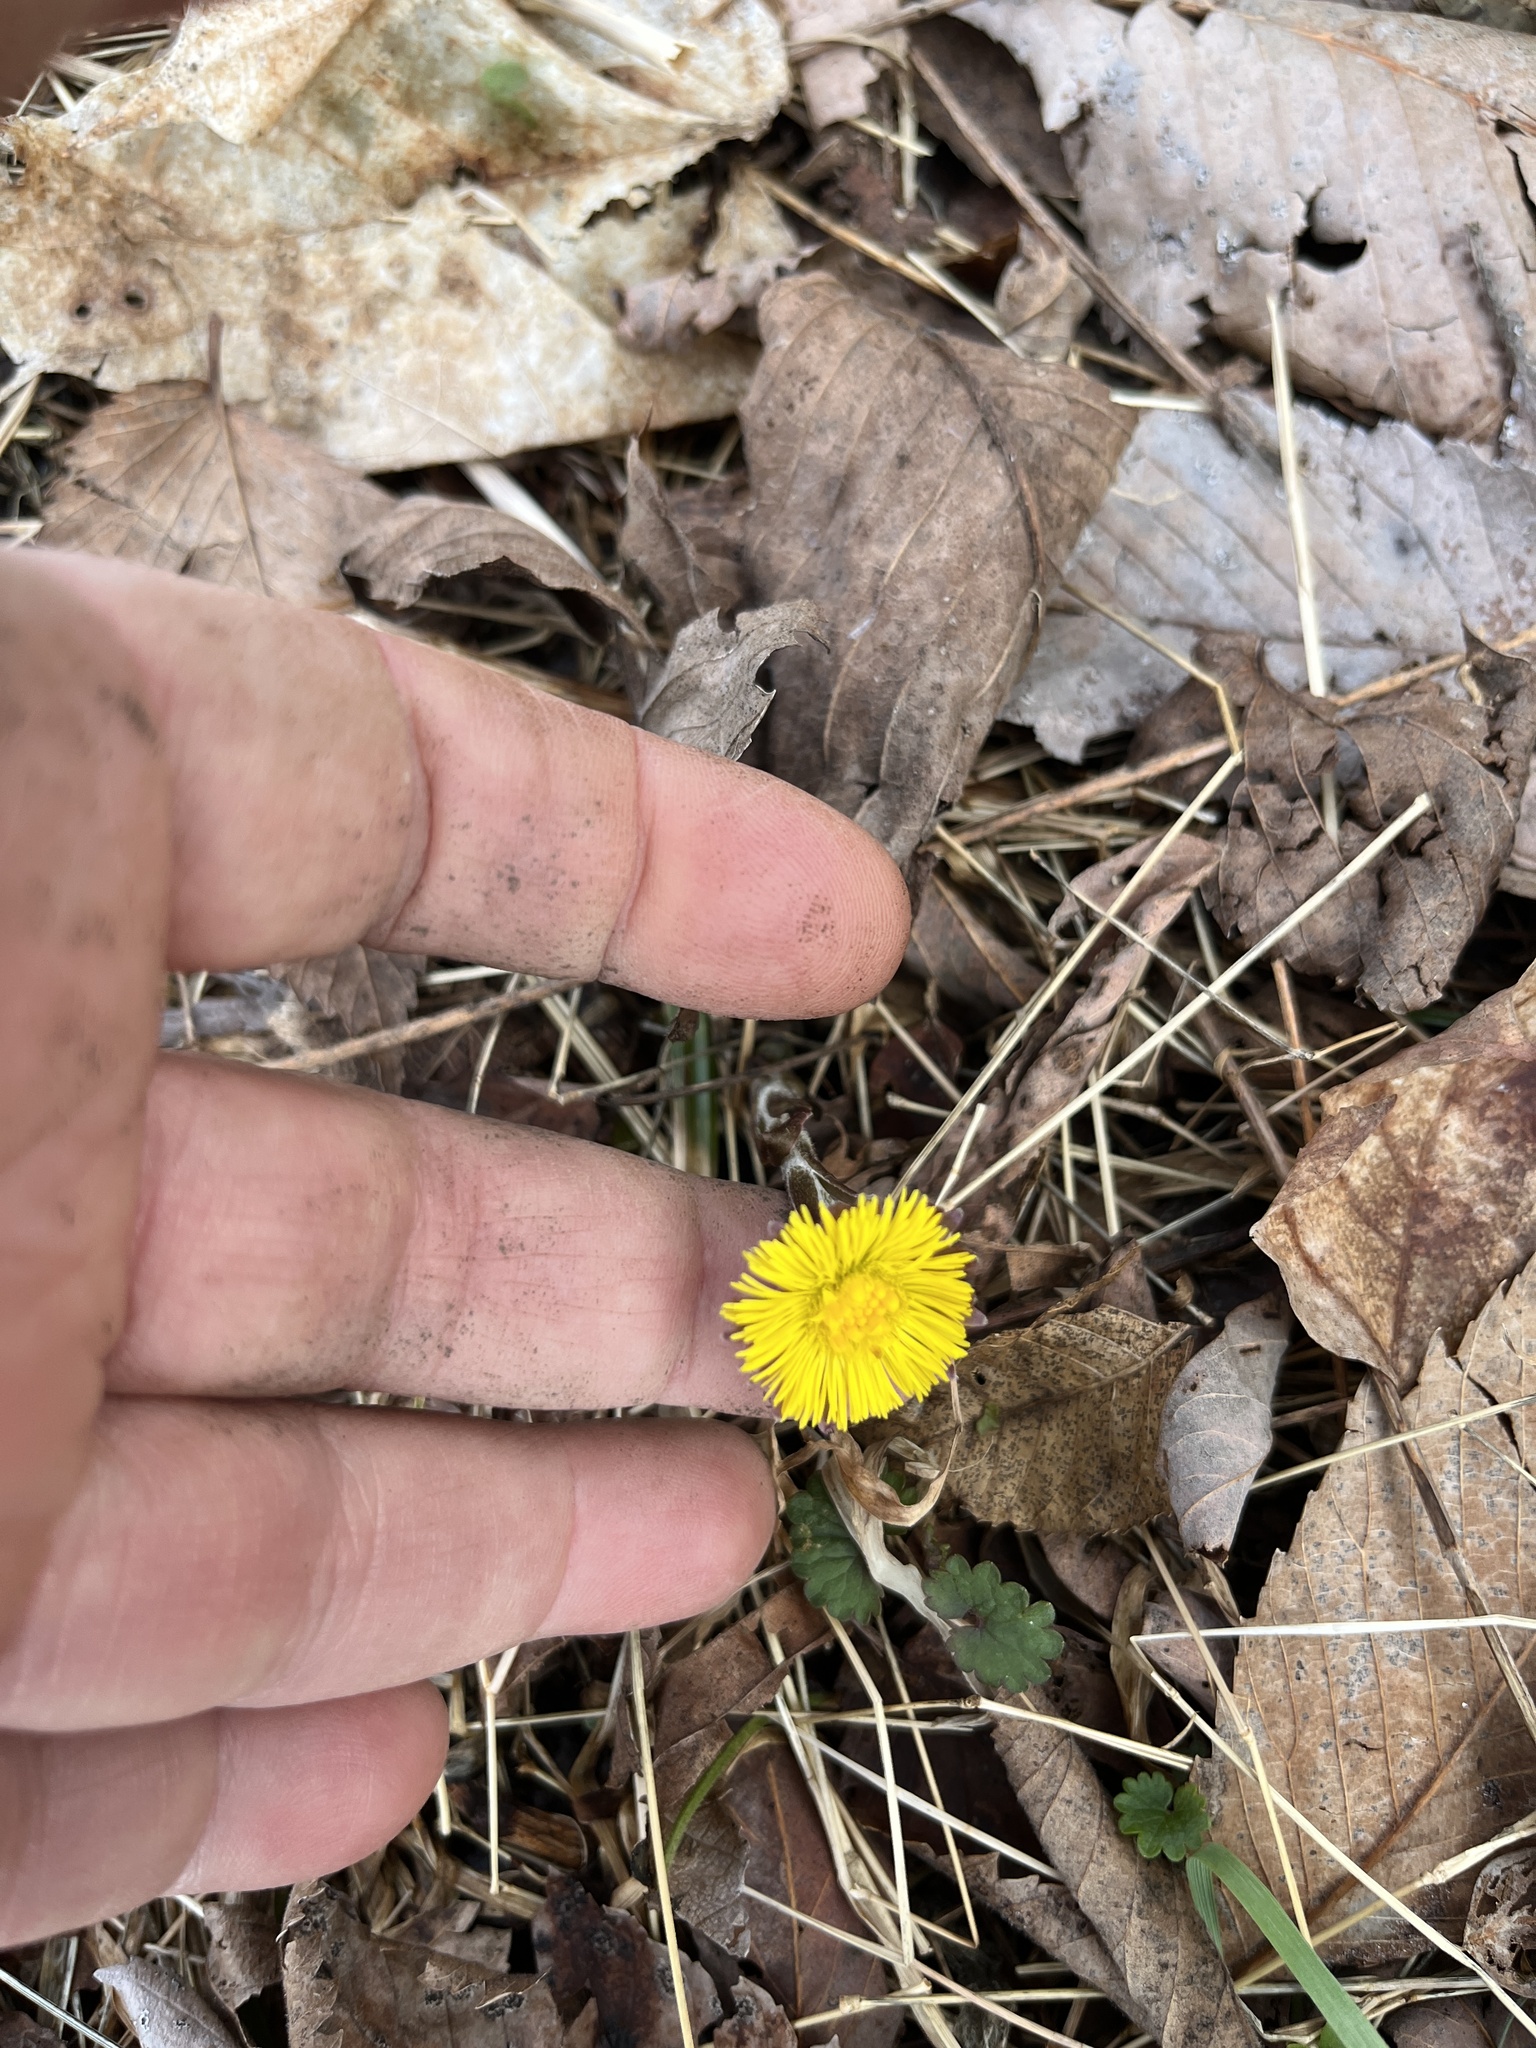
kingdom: Plantae
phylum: Tracheophyta
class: Magnoliopsida
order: Asterales
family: Asteraceae
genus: Tussilago
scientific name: Tussilago farfara
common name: Coltsfoot
